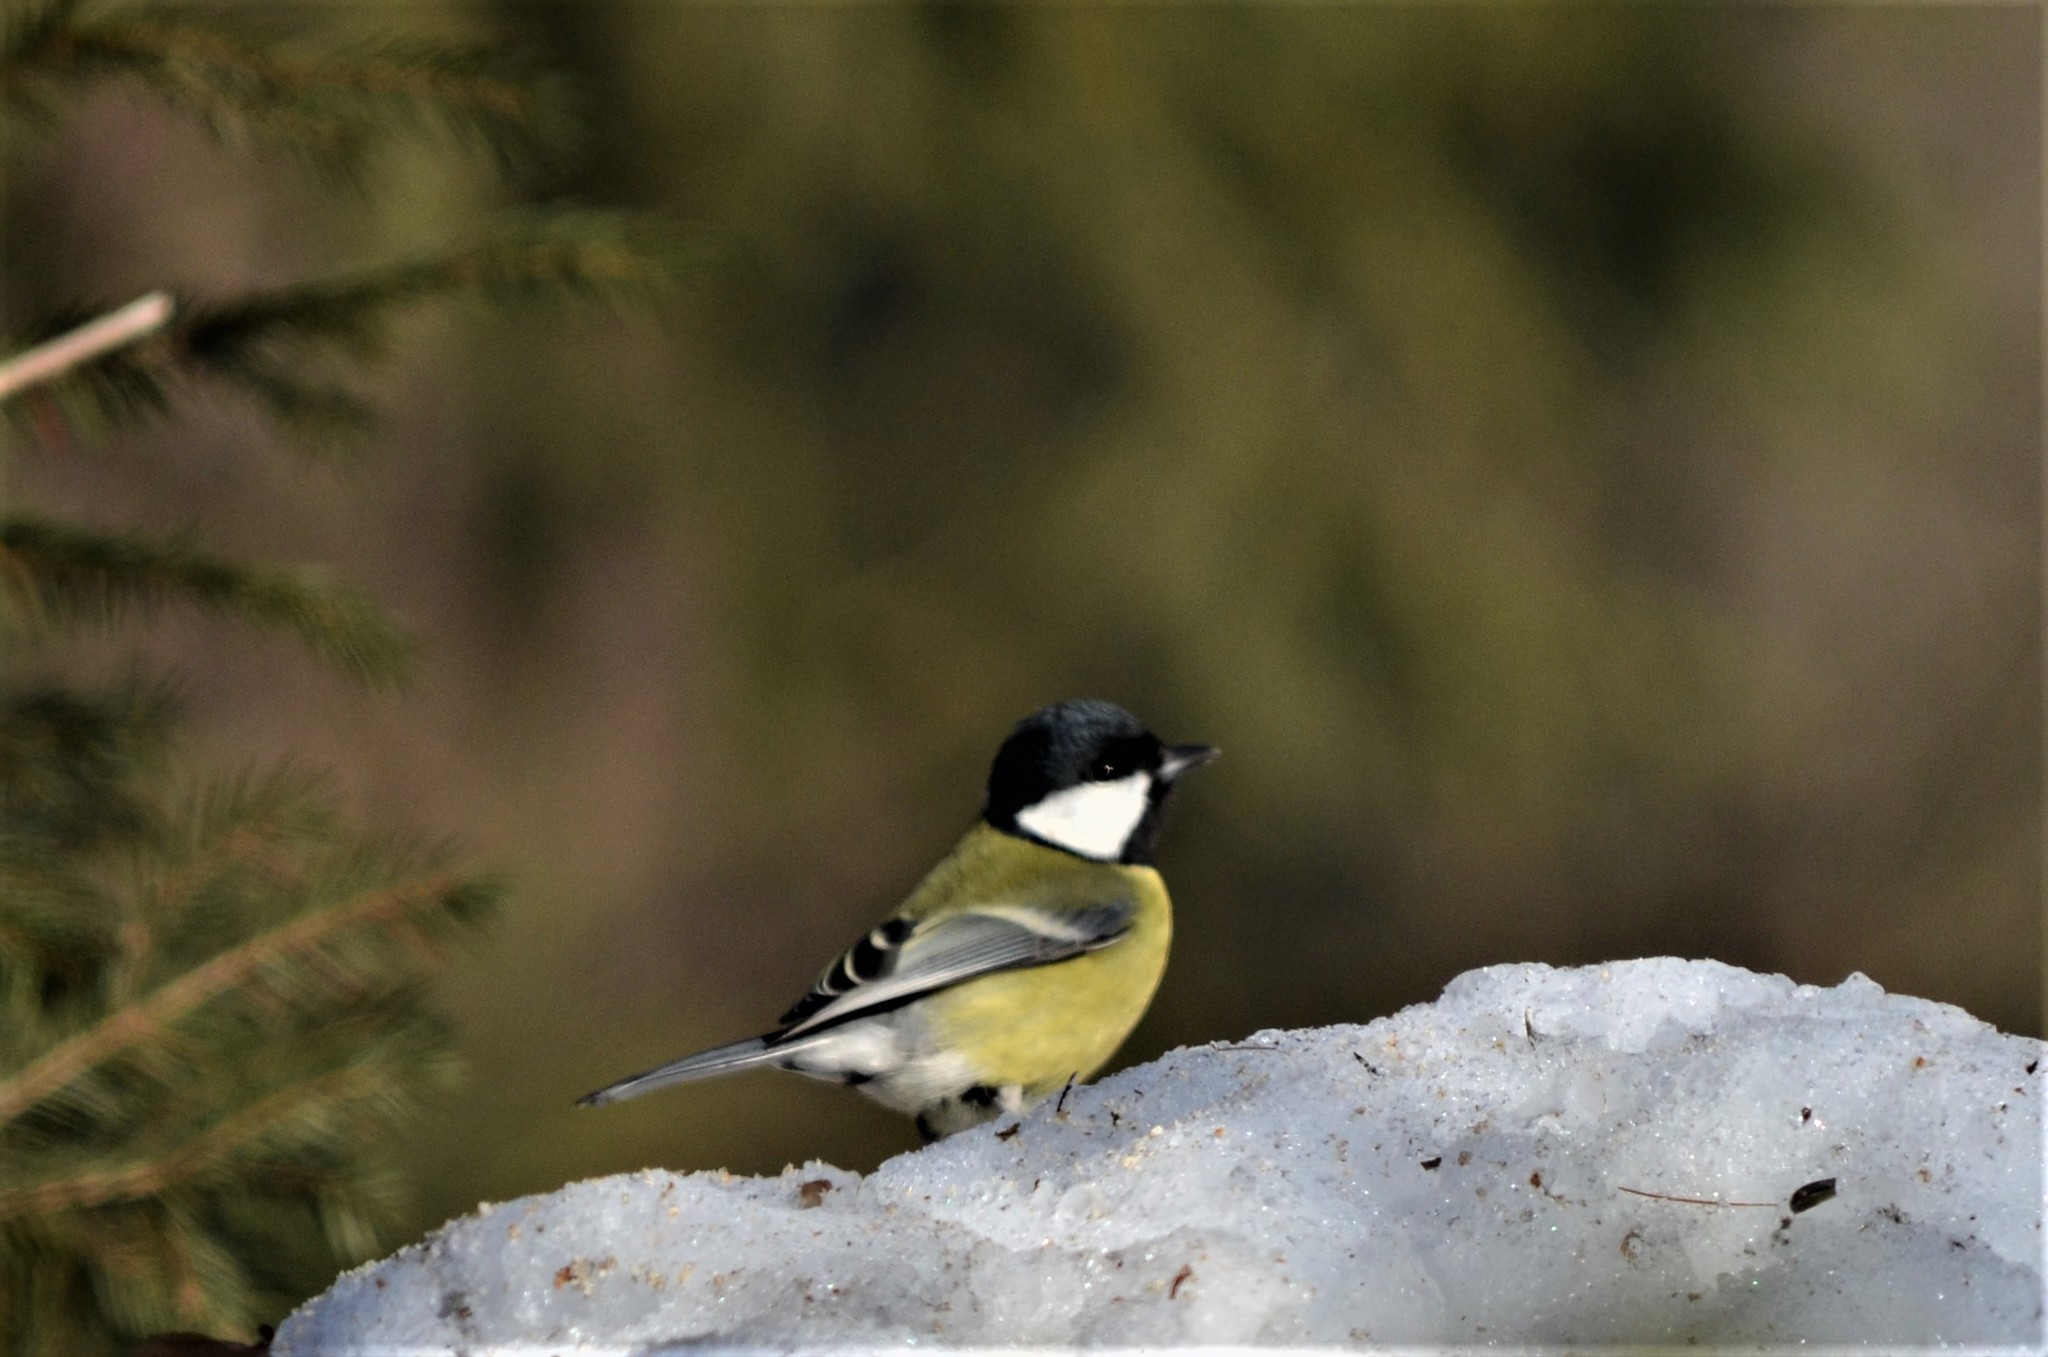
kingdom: Animalia
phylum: Chordata
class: Aves
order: Passeriformes
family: Paridae
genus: Parus
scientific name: Parus major
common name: Great tit
